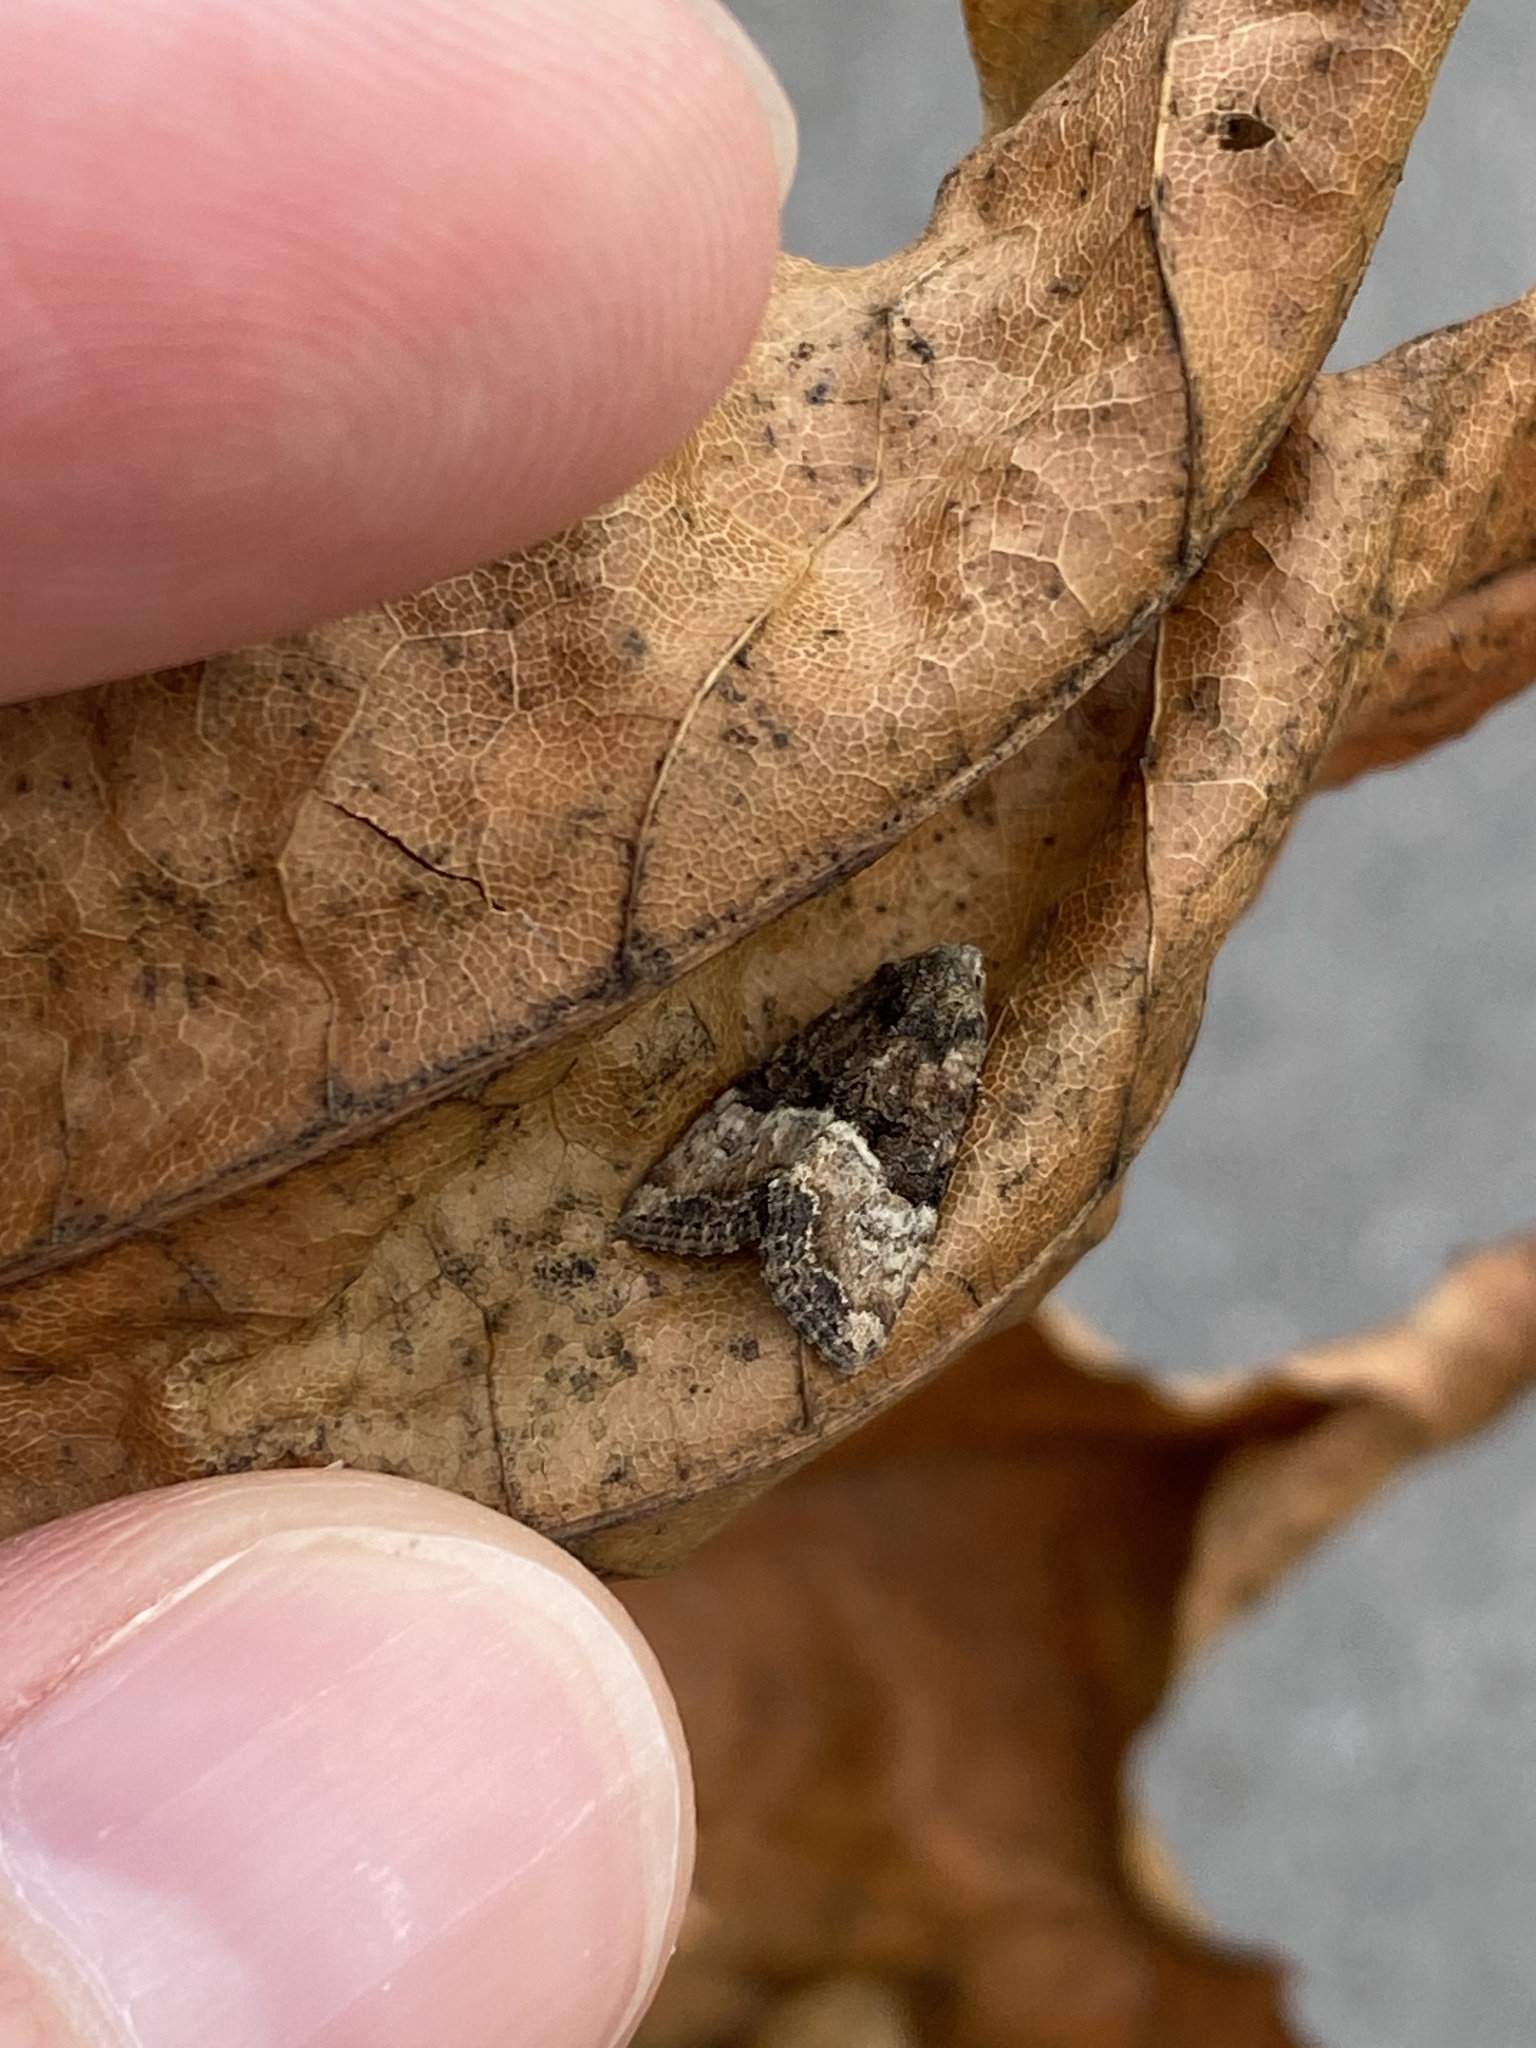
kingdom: Animalia
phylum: Arthropoda
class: Insecta
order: Lepidoptera
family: Noctuidae
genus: Mesoligia
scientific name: Mesoligia furuncula
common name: Cloaked minor
